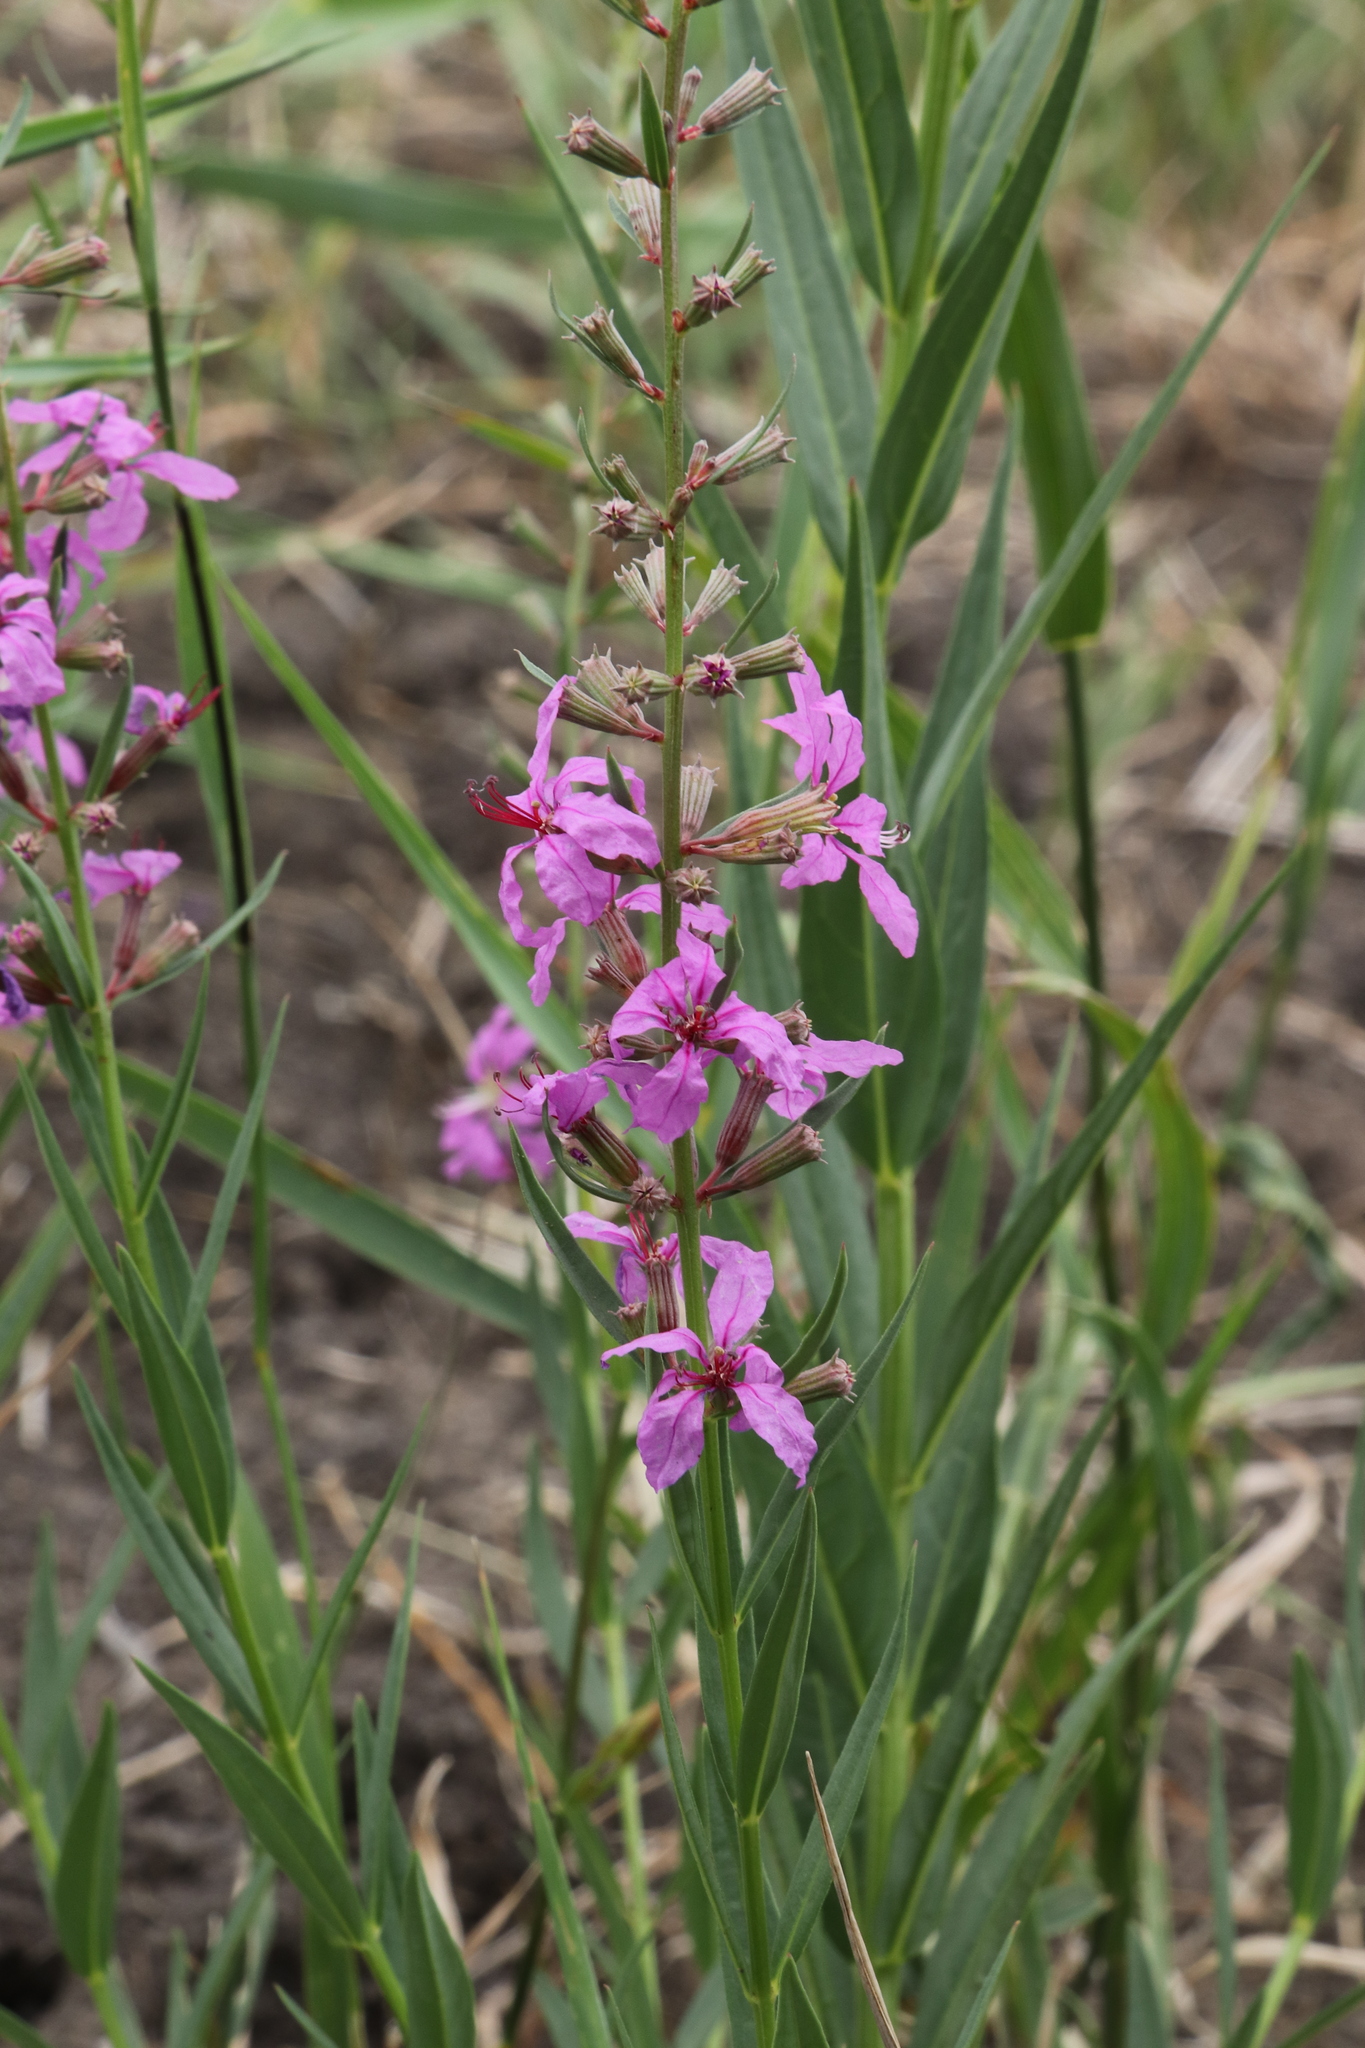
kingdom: Plantae
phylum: Tracheophyta
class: Magnoliopsida
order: Myrtales
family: Lythraceae
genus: Lythrum
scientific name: Lythrum virgatum
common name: European wand loosestrife
